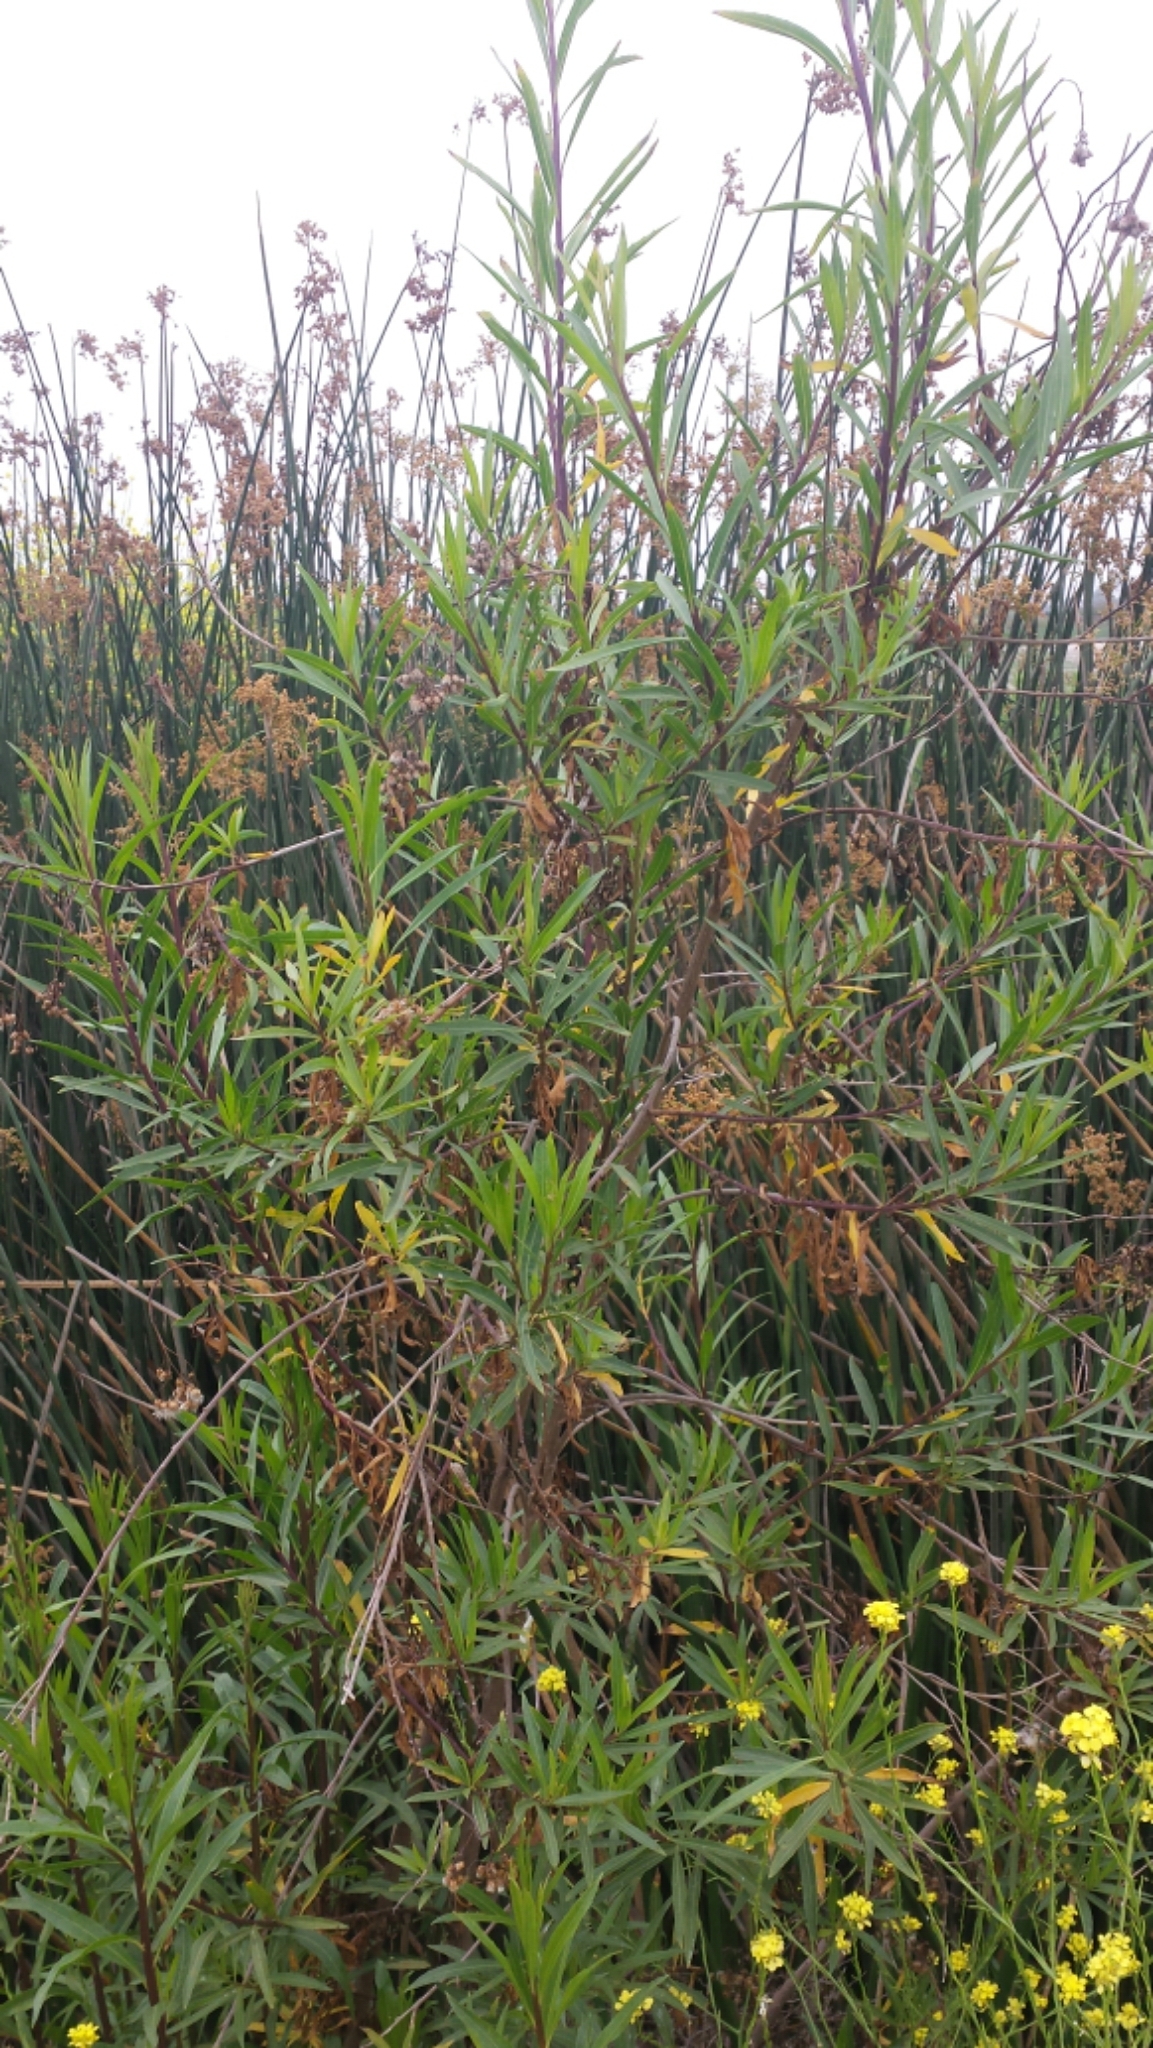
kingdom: Plantae
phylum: Tracheophyta
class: Magnoliopsida
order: Asterales
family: Asteraceae
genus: Baccharis
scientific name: Baccharis salicifolia
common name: Sticky baccharis
